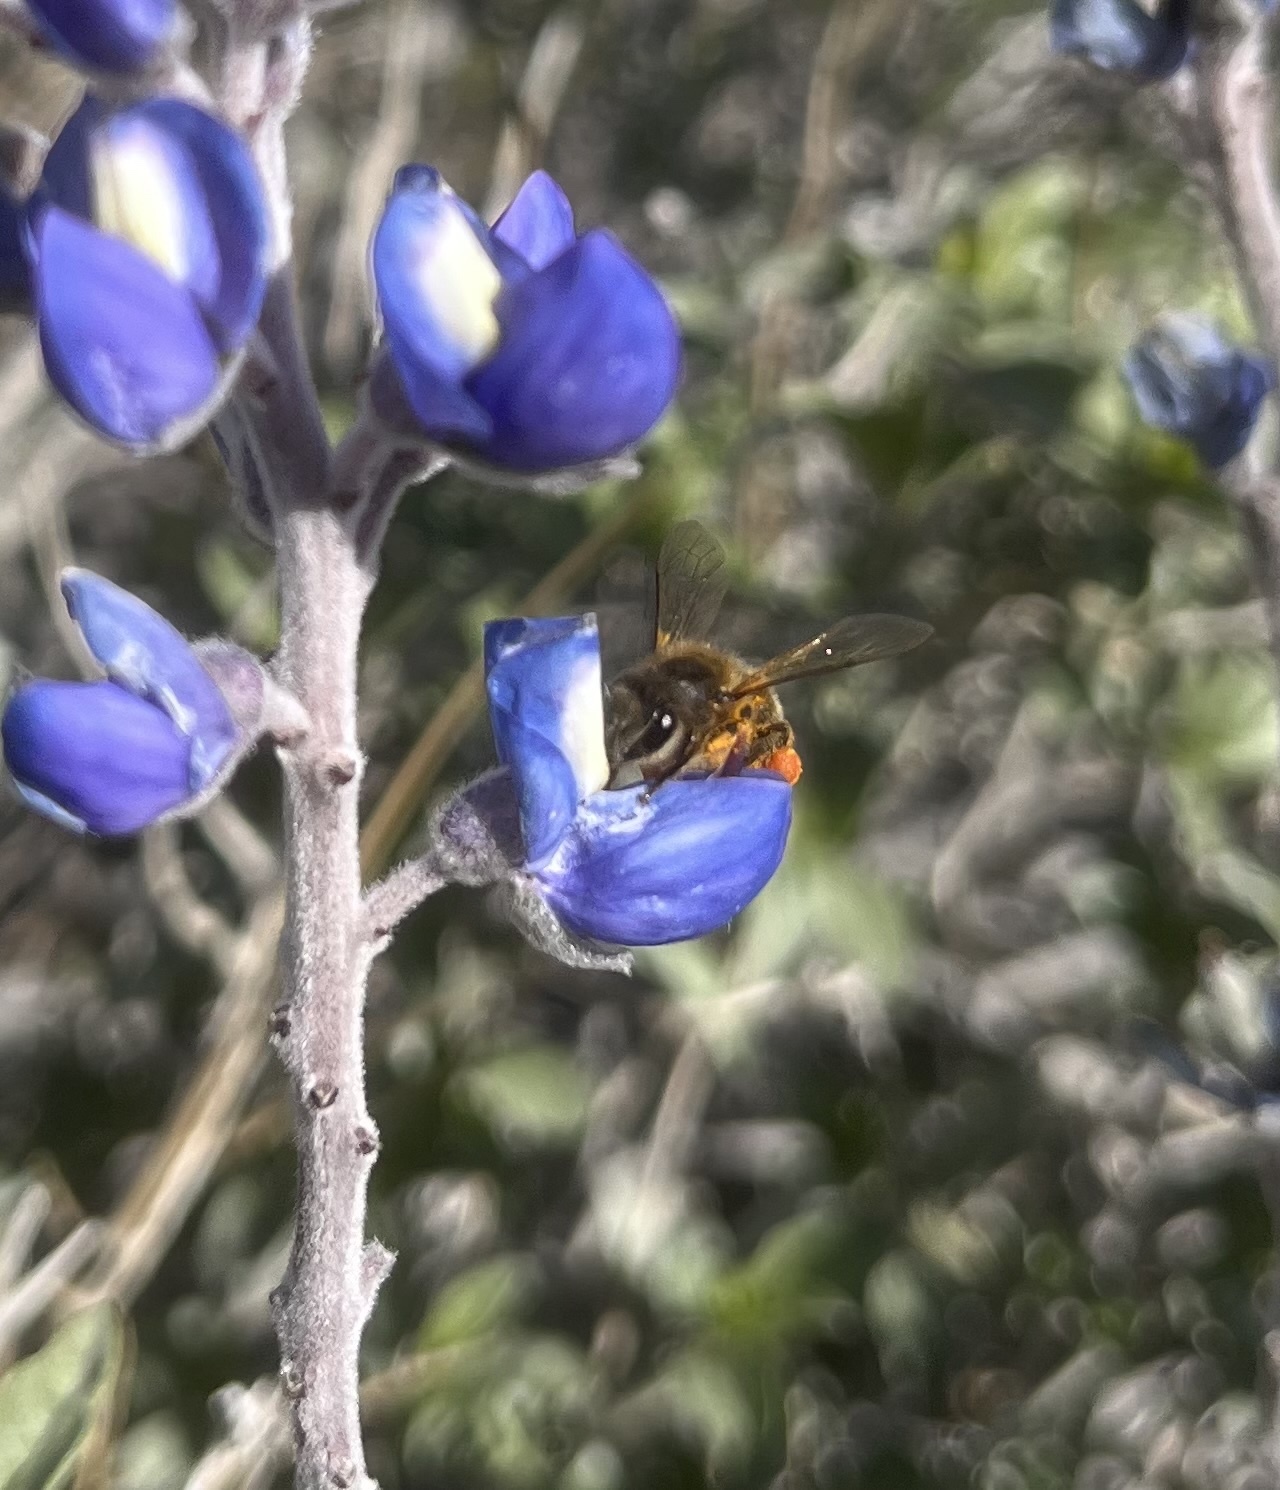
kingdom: Animalia
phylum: Arthropoda
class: Insecta
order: Hymenoptera
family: Apidae
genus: Apis
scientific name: Apis mellifera
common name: Honey bee
